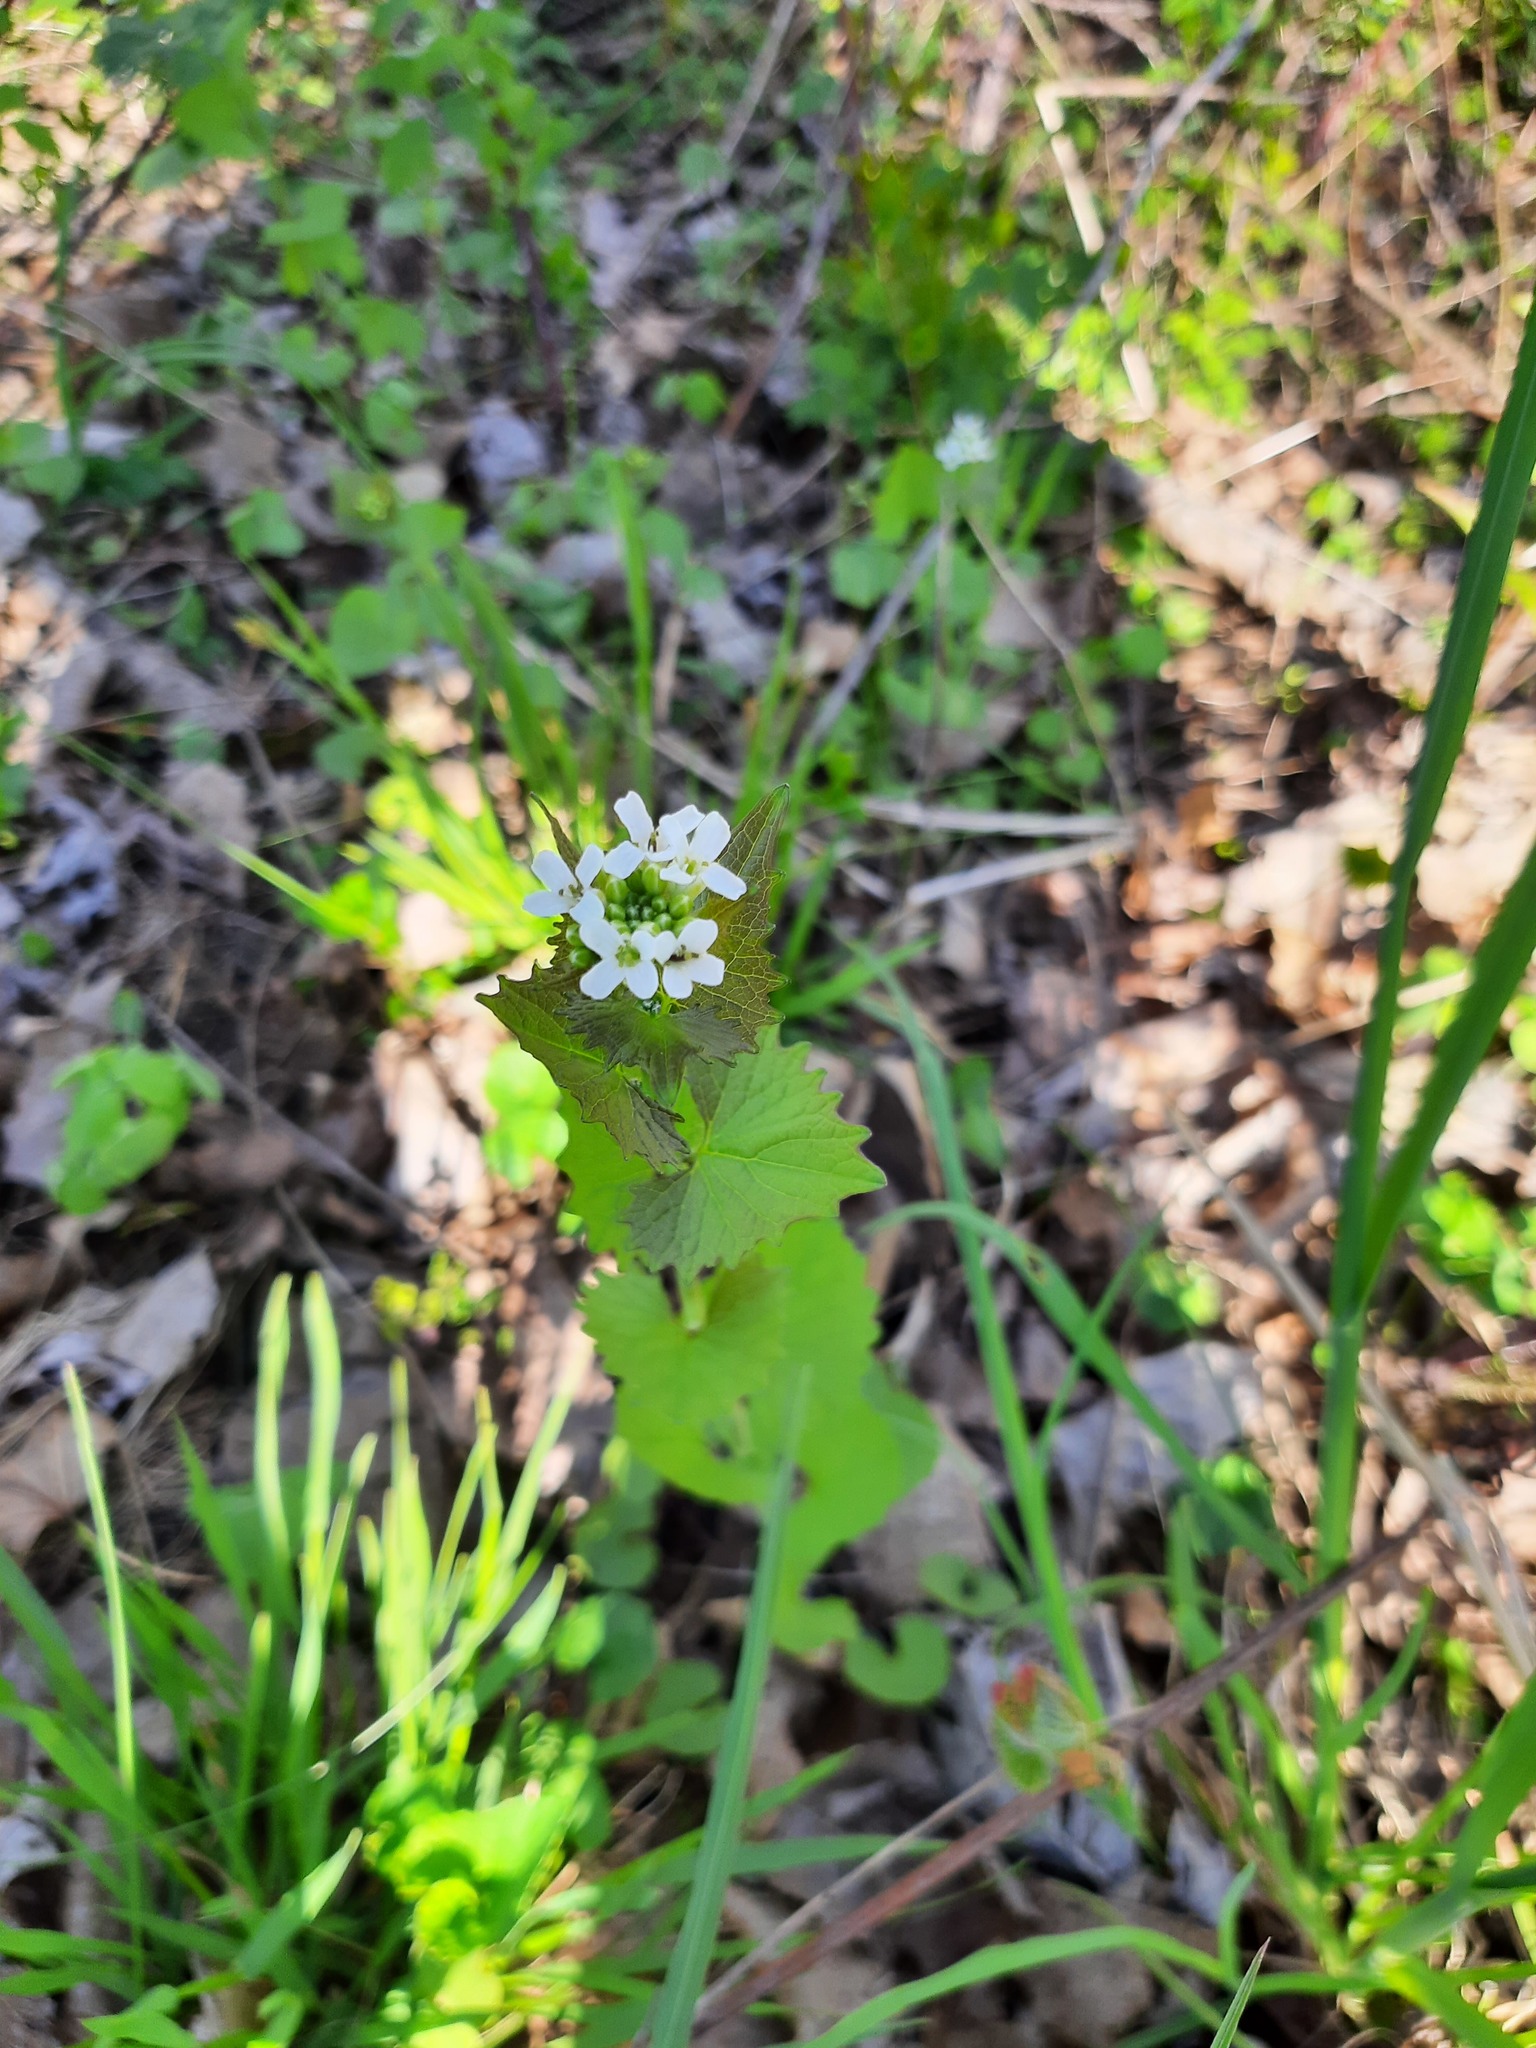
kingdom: Plantae
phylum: Tracheophyta
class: Magnoliopsida
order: Brassicales
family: Brassicaceae
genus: Alliaria
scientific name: Alliaria petiolata
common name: Garlic mustard
